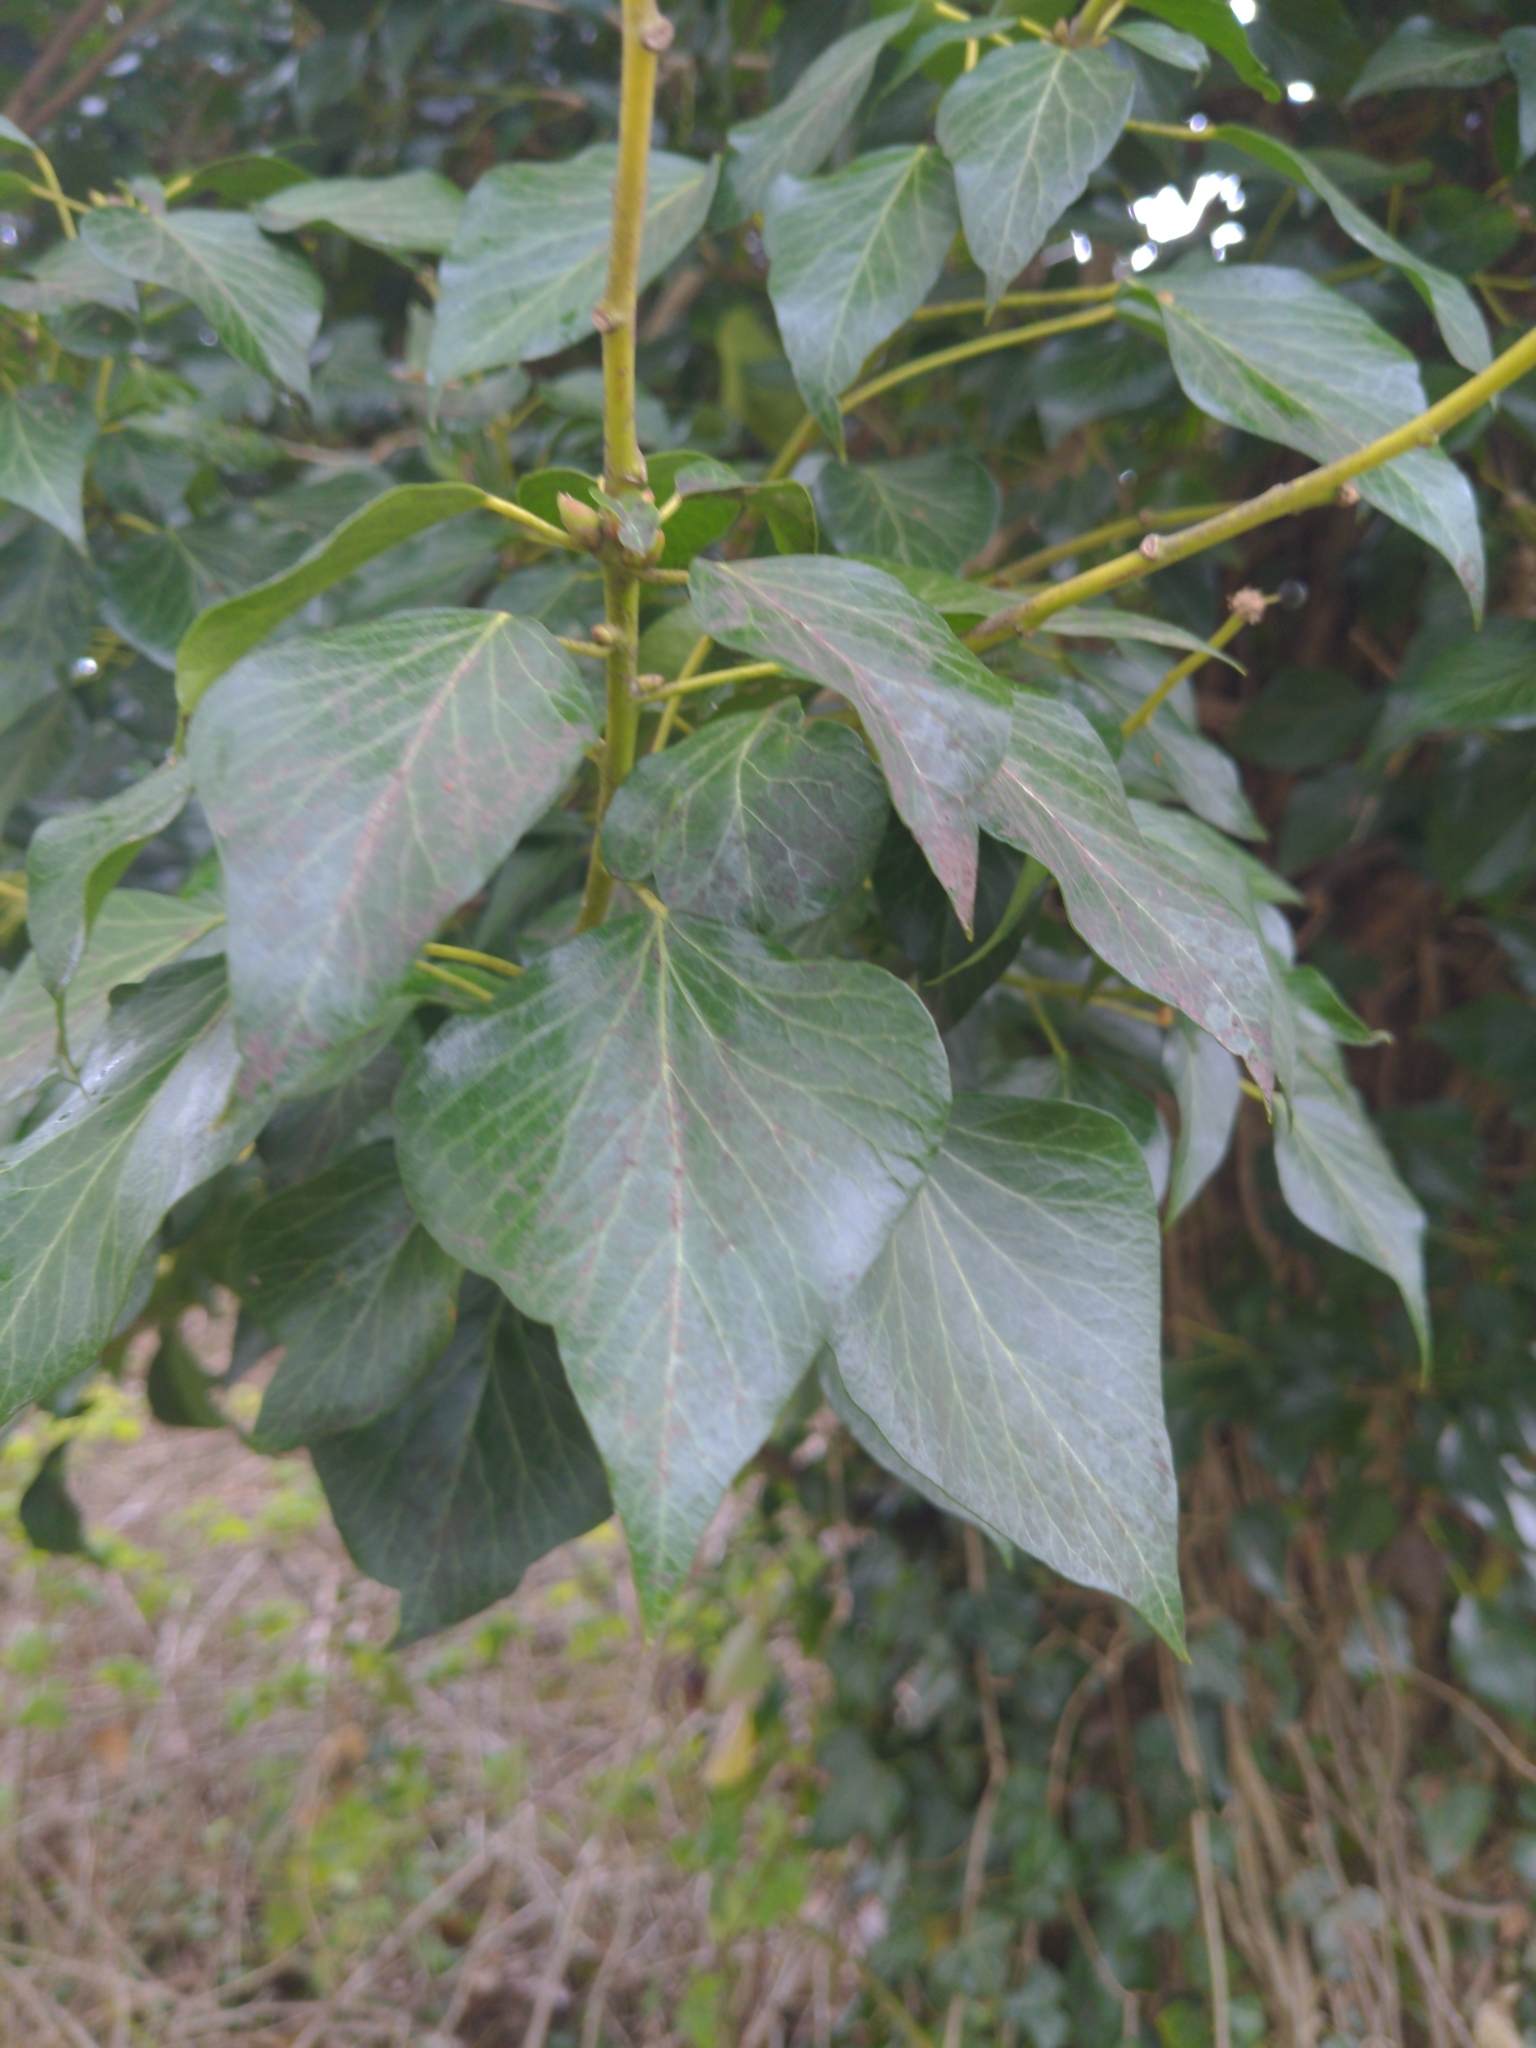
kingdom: Plantae
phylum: Tracheophyta
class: Magnoliopsida
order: Apiales
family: Araliaceae
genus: Hedera
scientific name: Hedera helix
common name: Ivy
